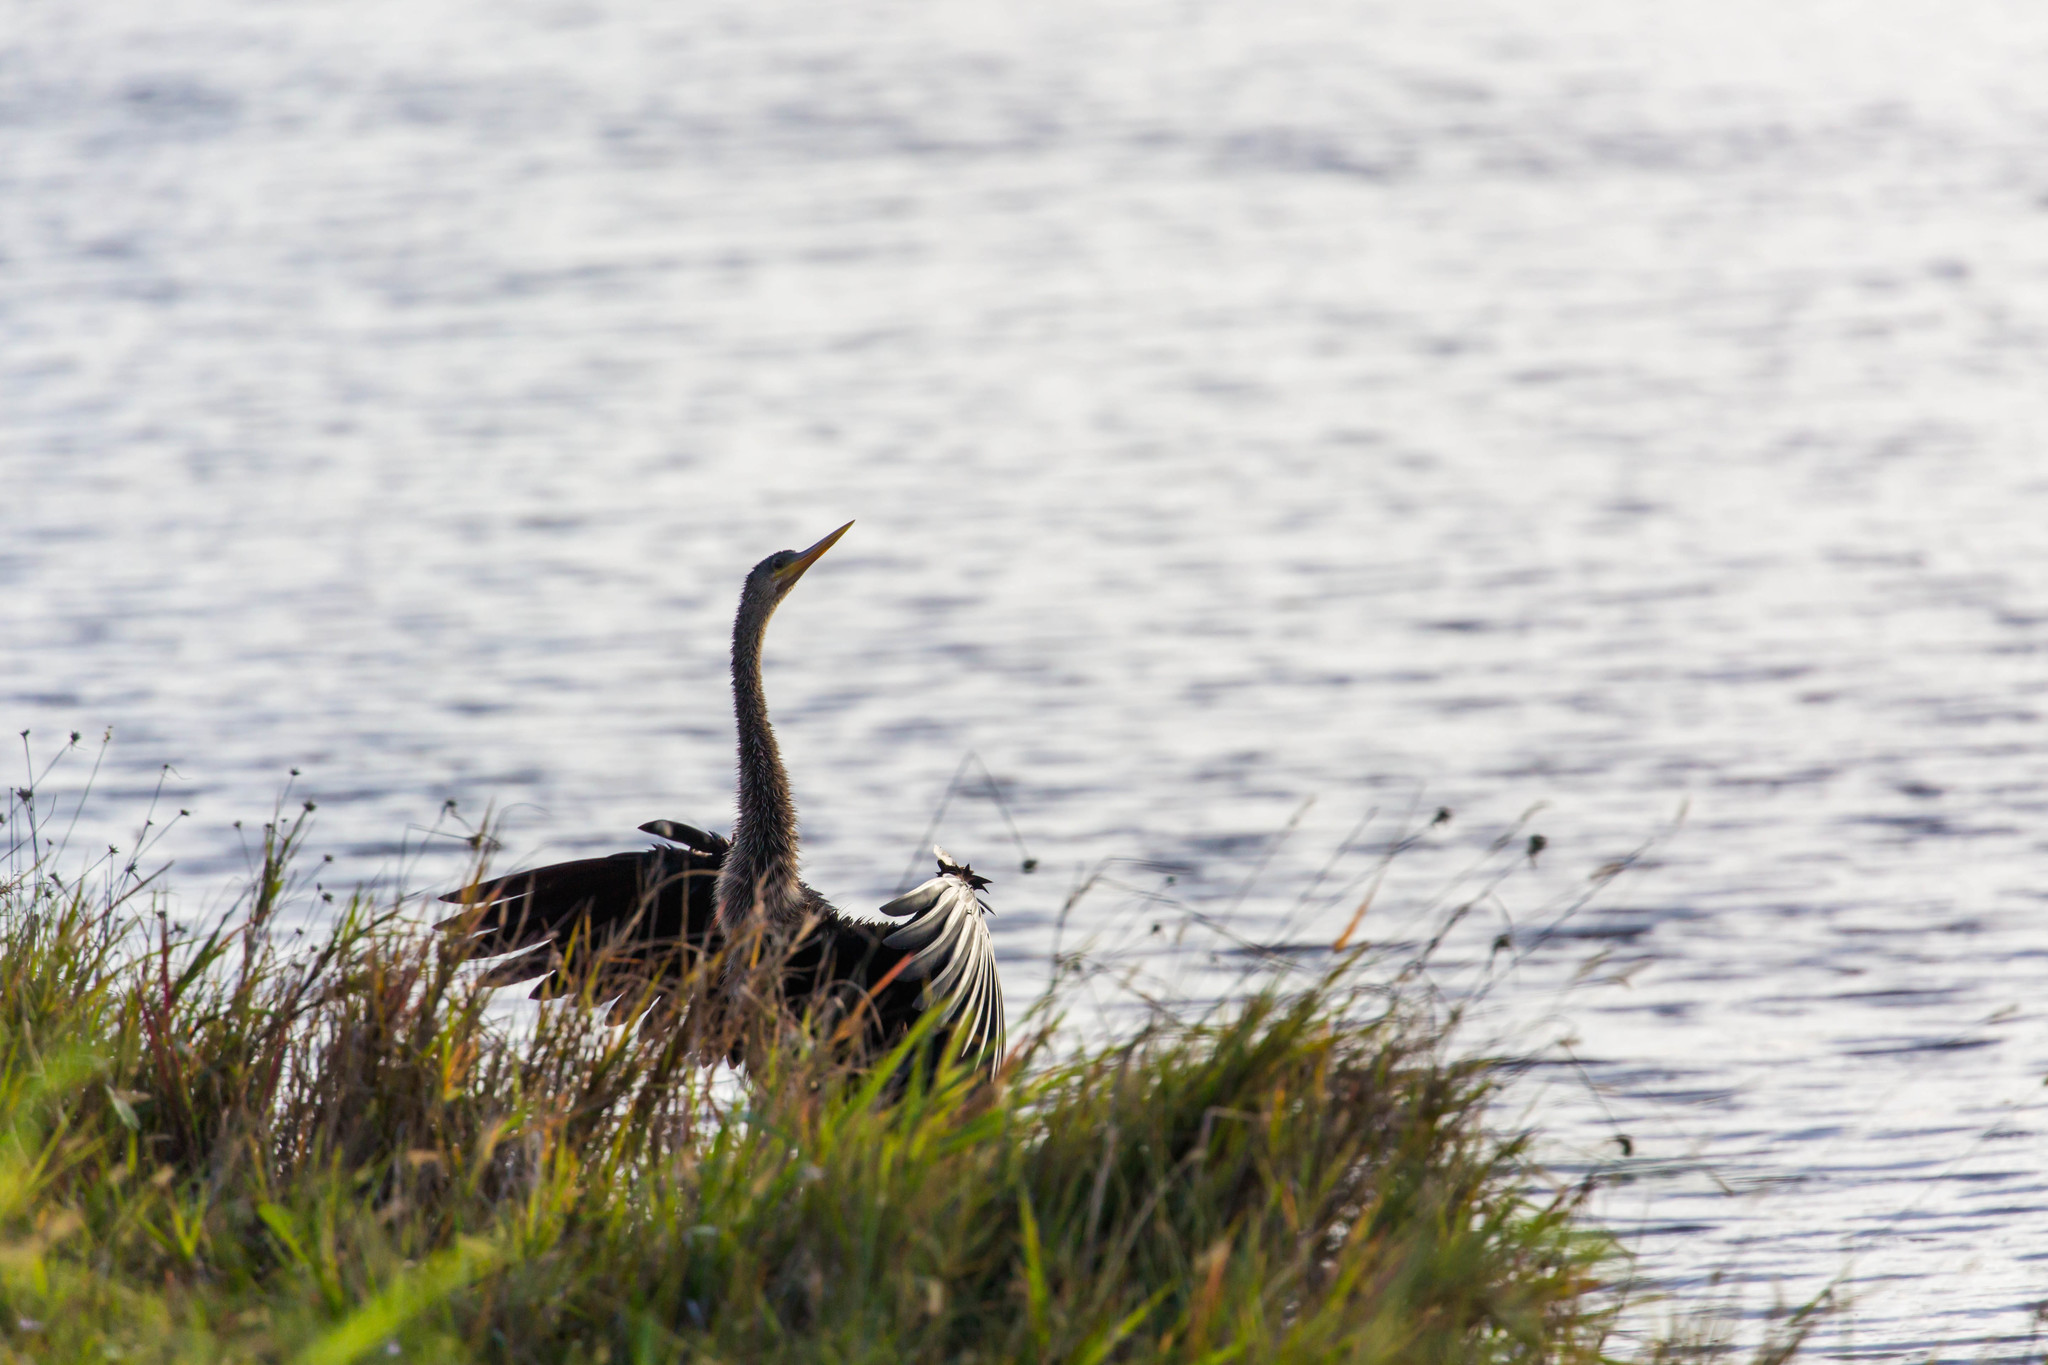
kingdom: Animalia
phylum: Chordata
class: Aves
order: Suliformes
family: Anhingidae
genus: Anhinga
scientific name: Anhinga anhinga
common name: Anhinga
